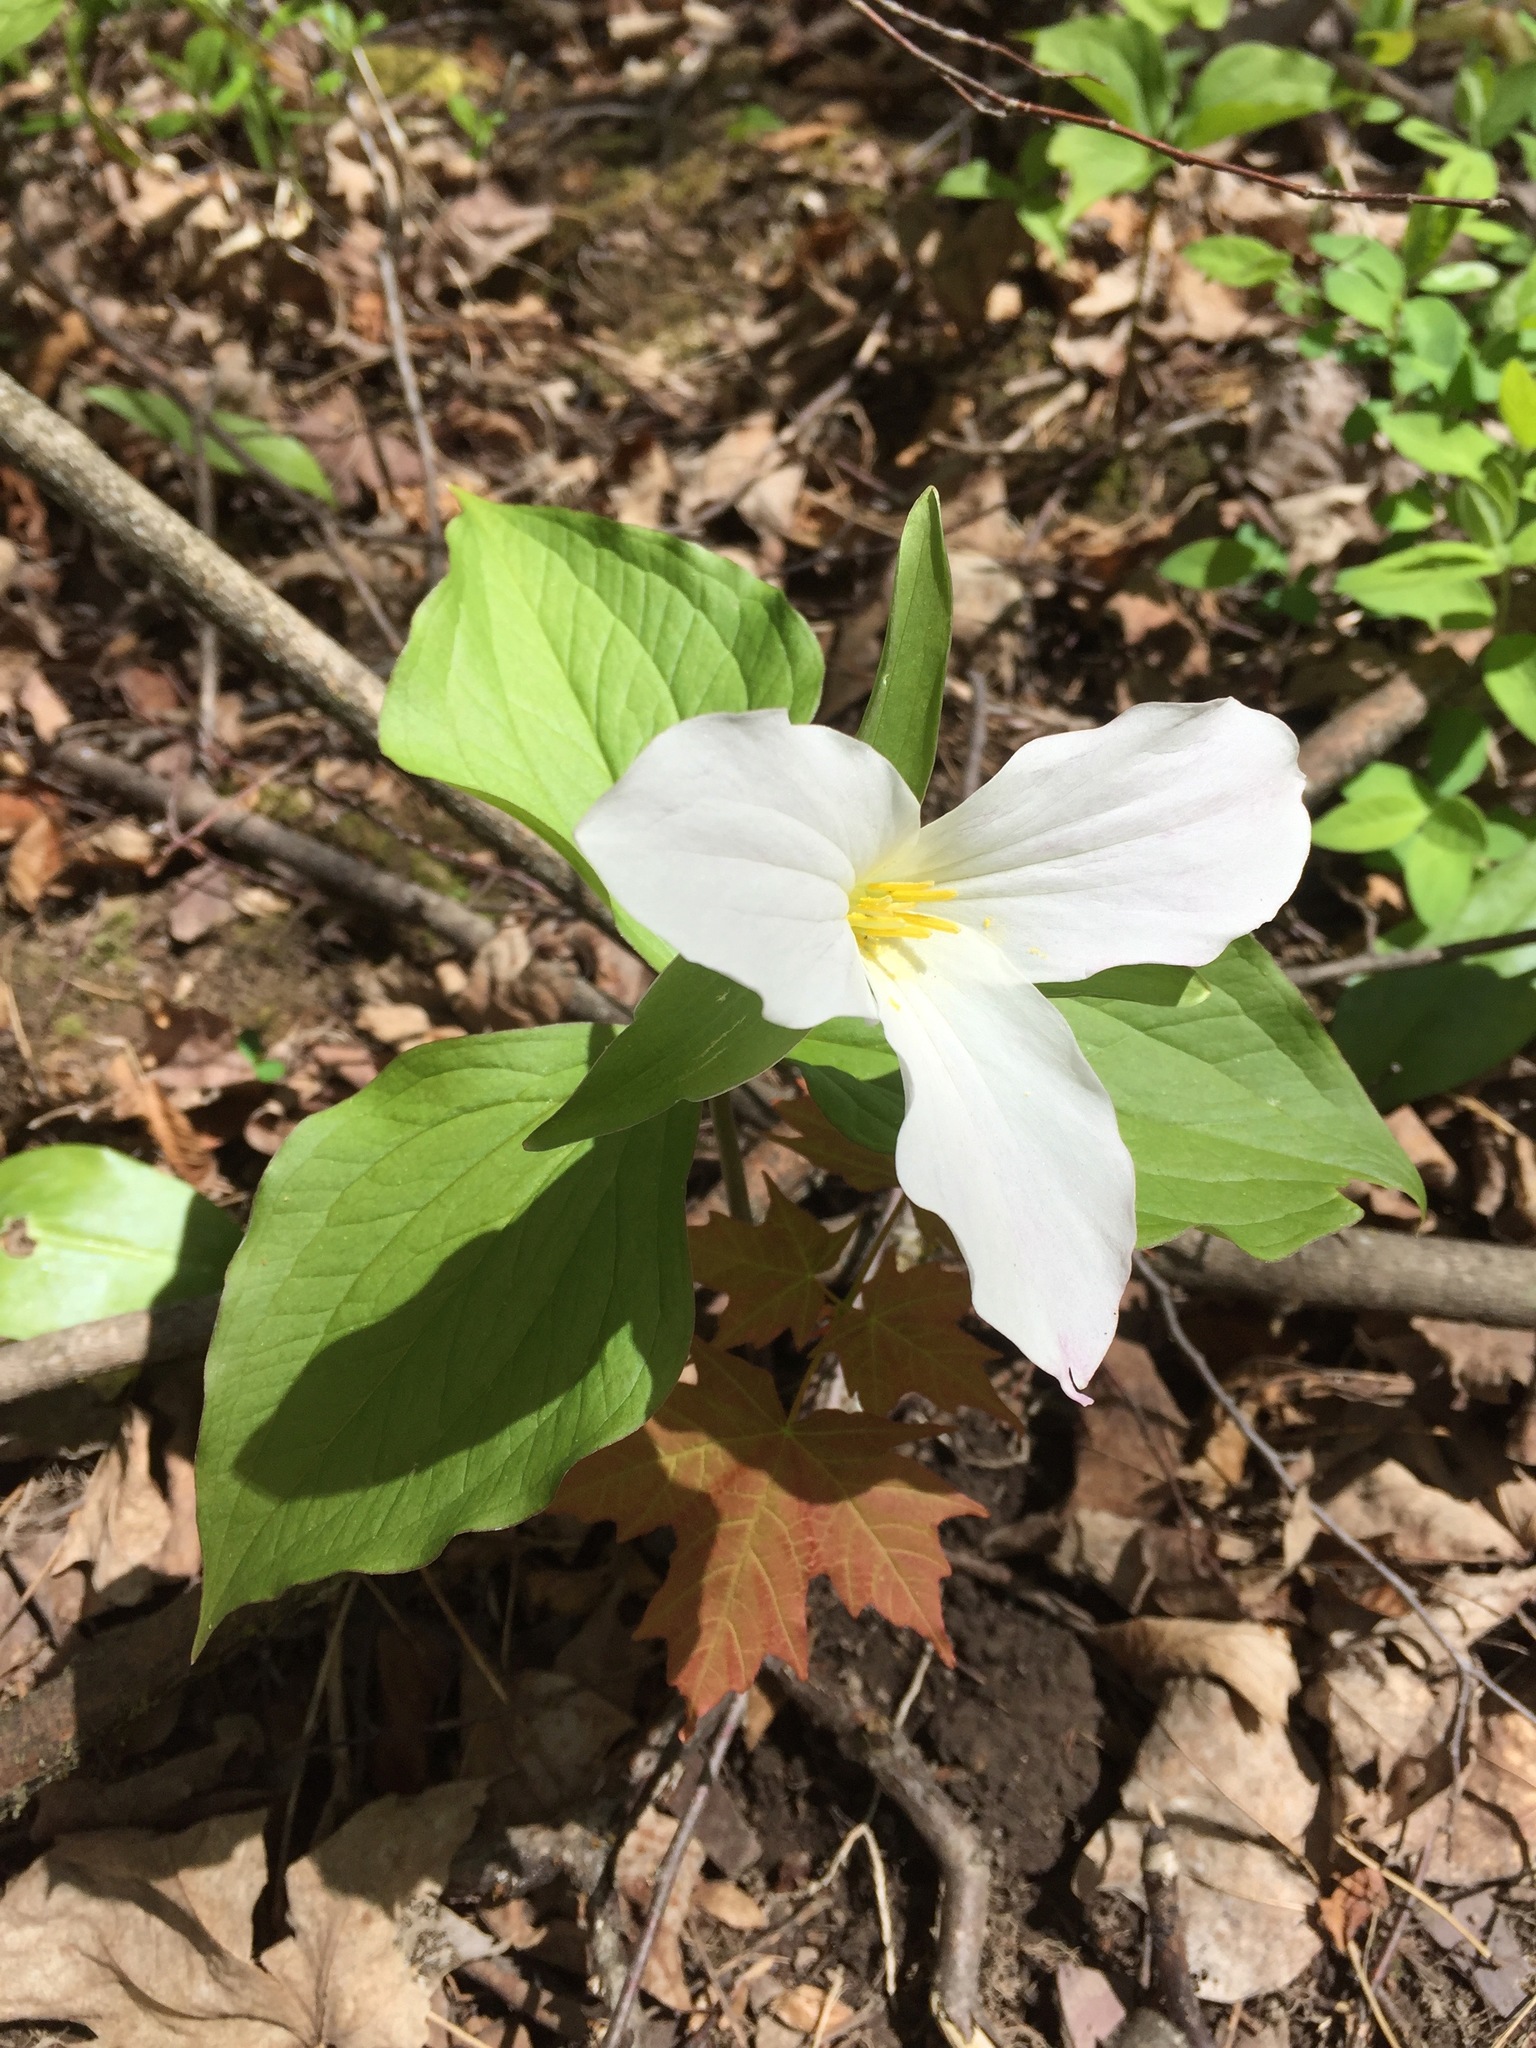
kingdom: Plantae
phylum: Tracheophyta
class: Liliopsida
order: Liliales
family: Melanthiaceae
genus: Trillium
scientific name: Trillium grandiflorum
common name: Great white trillium
